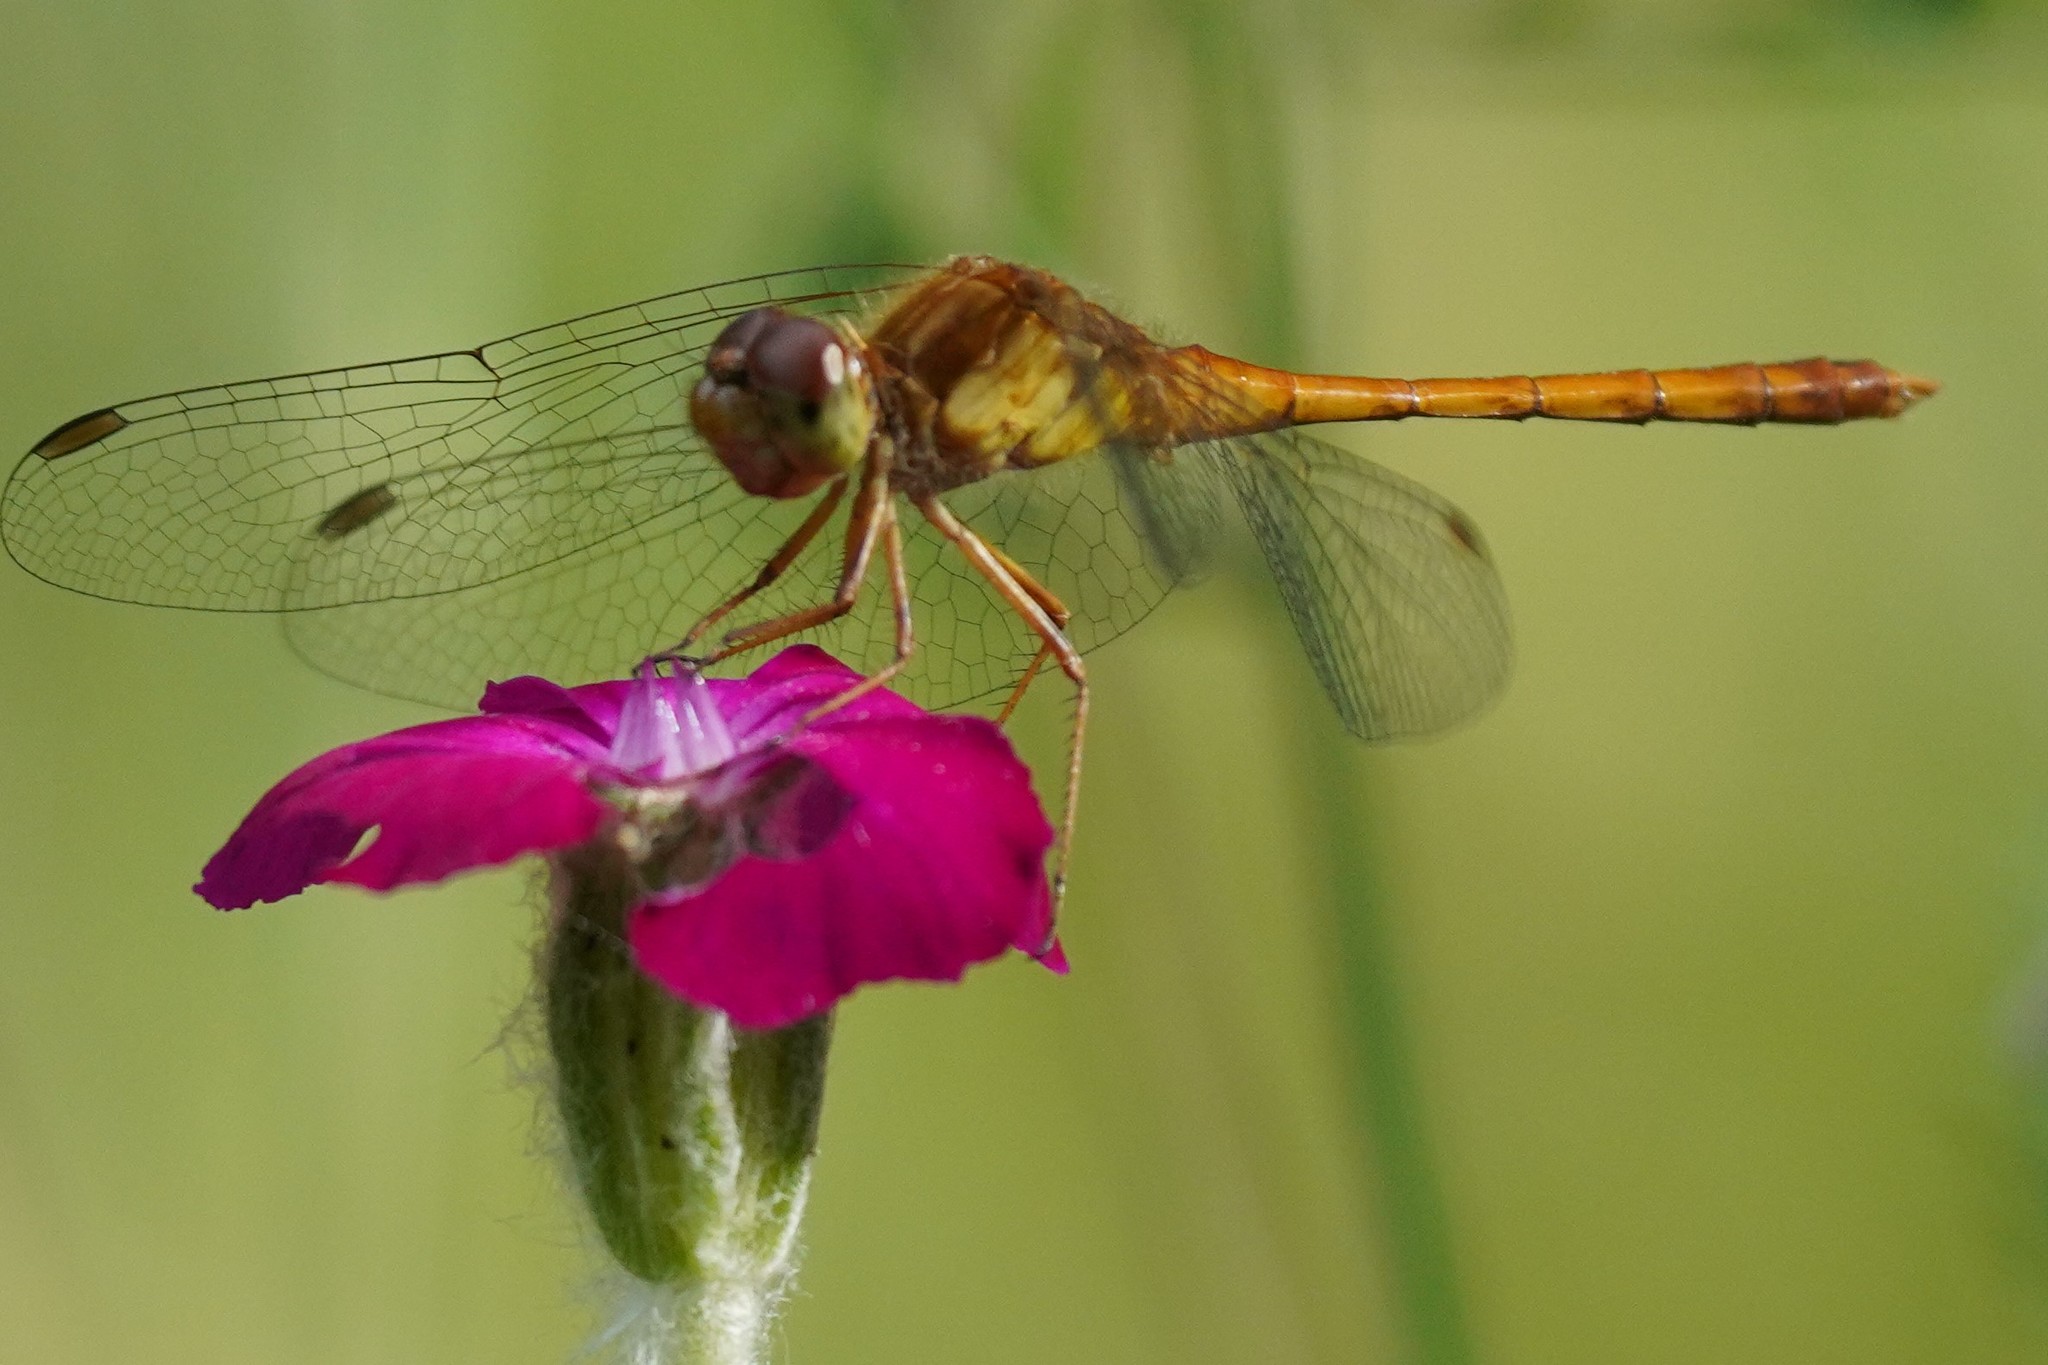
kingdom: Animalia
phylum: Arthropoda
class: Insecta
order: Odonata
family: Libellulidae
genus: Sympetrum
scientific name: Sympetrum vicinum
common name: Autumn meadowhawk
